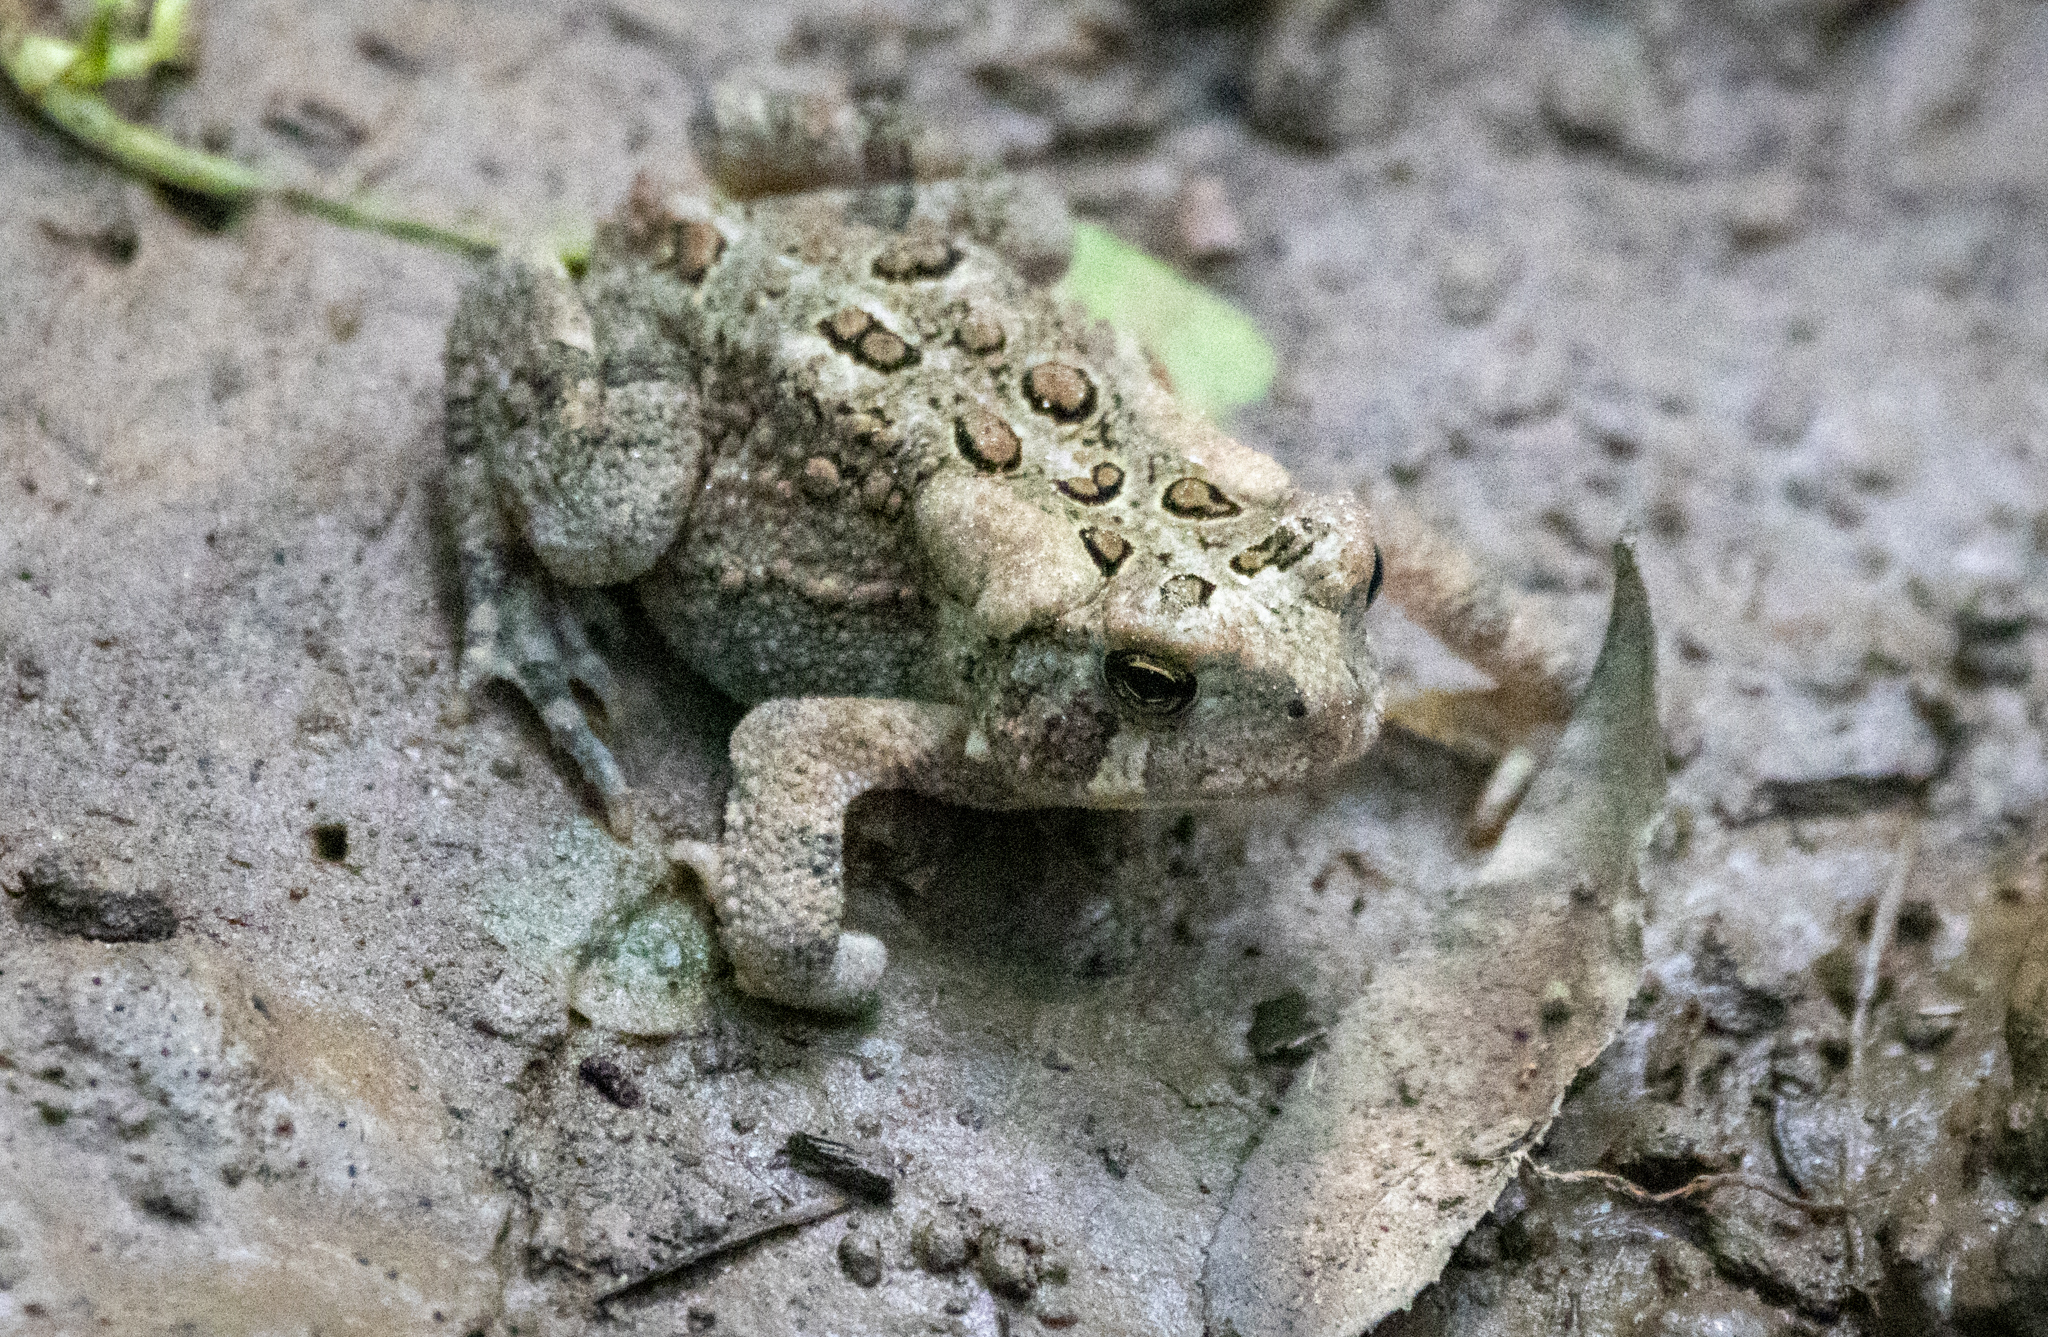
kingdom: Animalia
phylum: Chordata
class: Amphibia
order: Anura
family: Bufonidae
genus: Anaxyrus
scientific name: Anaxyrus americanus
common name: American toad
